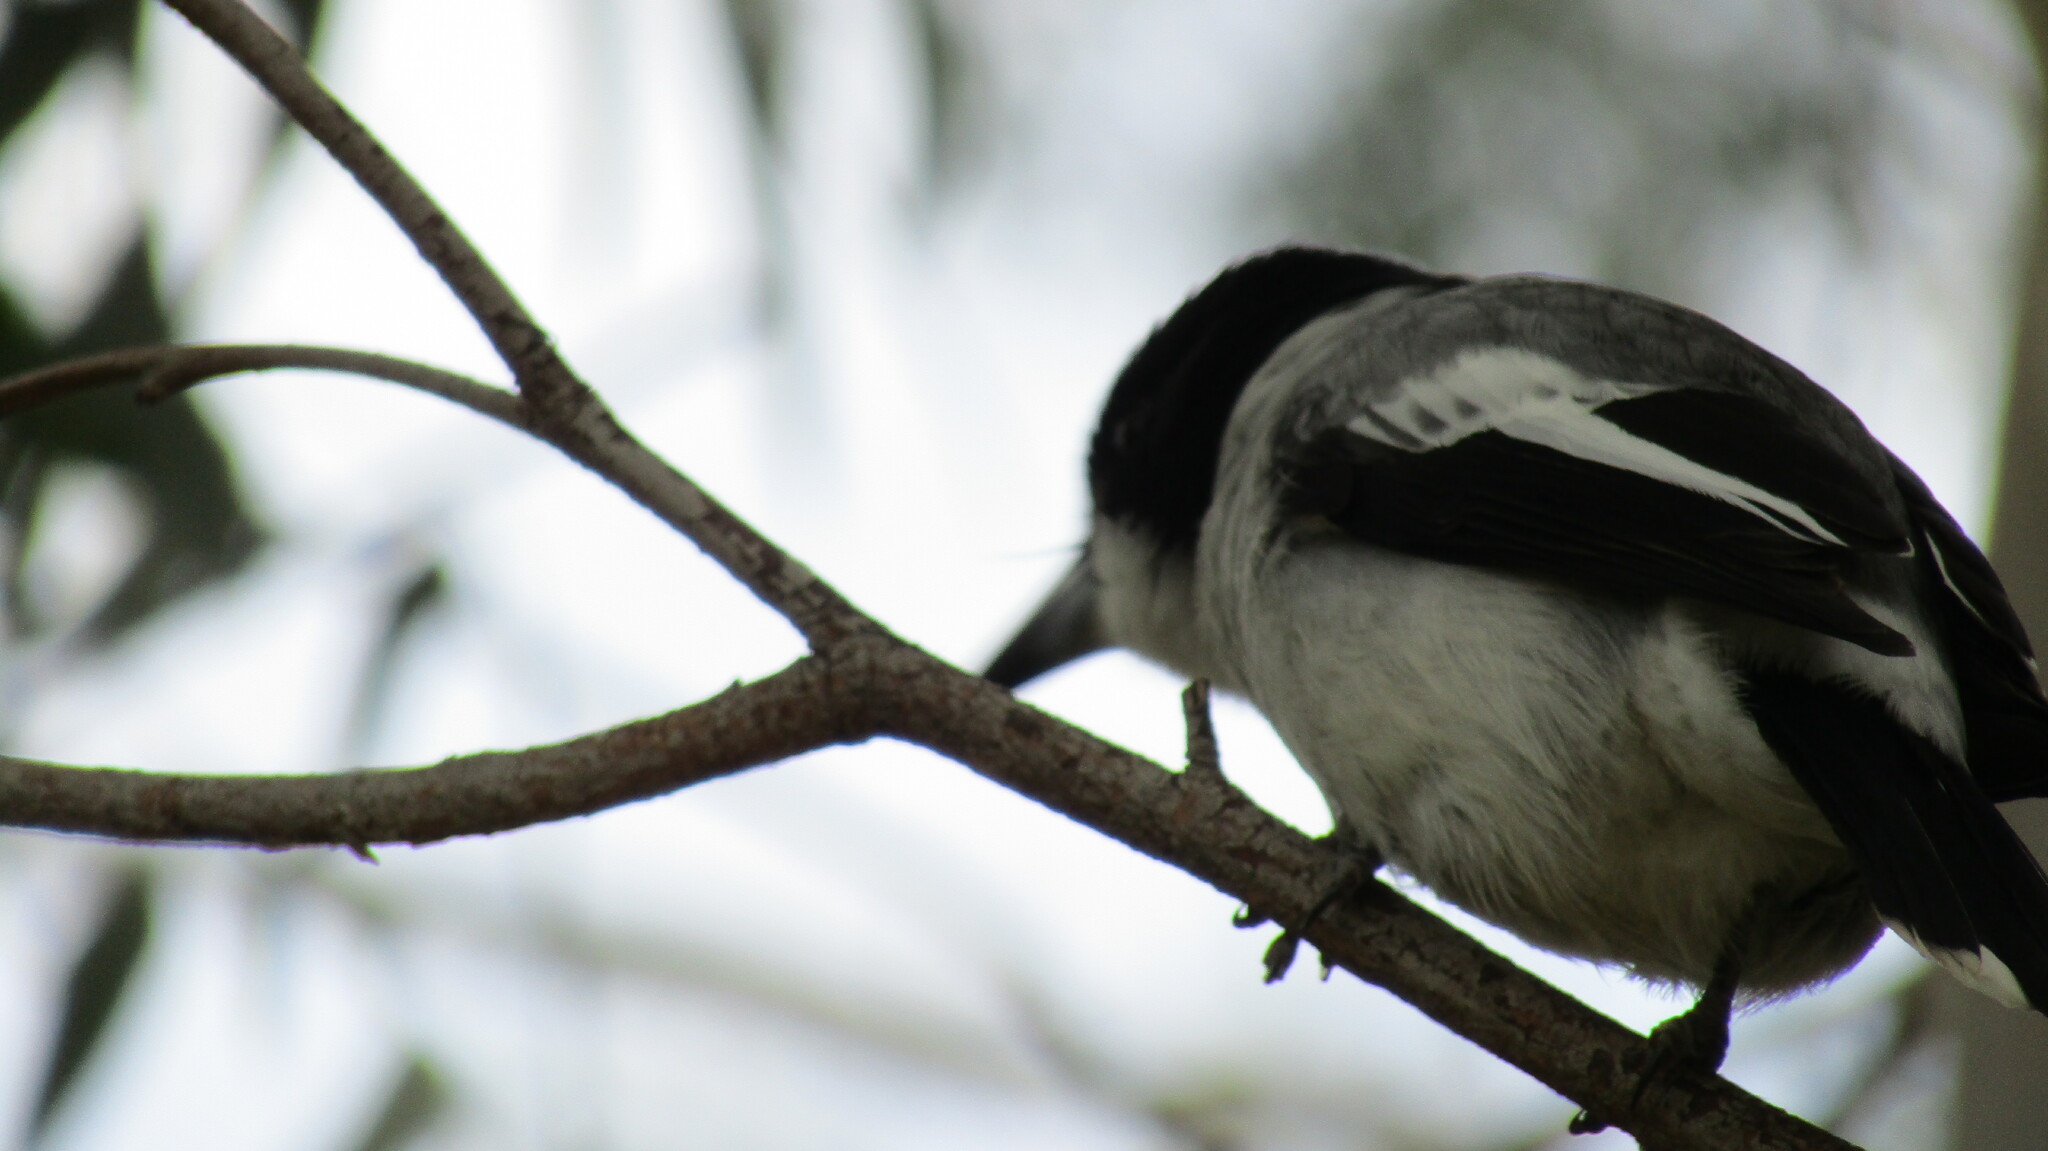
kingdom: Animalia
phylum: Chordata
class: Aves
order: Passeriformes
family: Cracticidae
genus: Cracticus
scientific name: Cracticus torquatus
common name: Grey butcherbird
